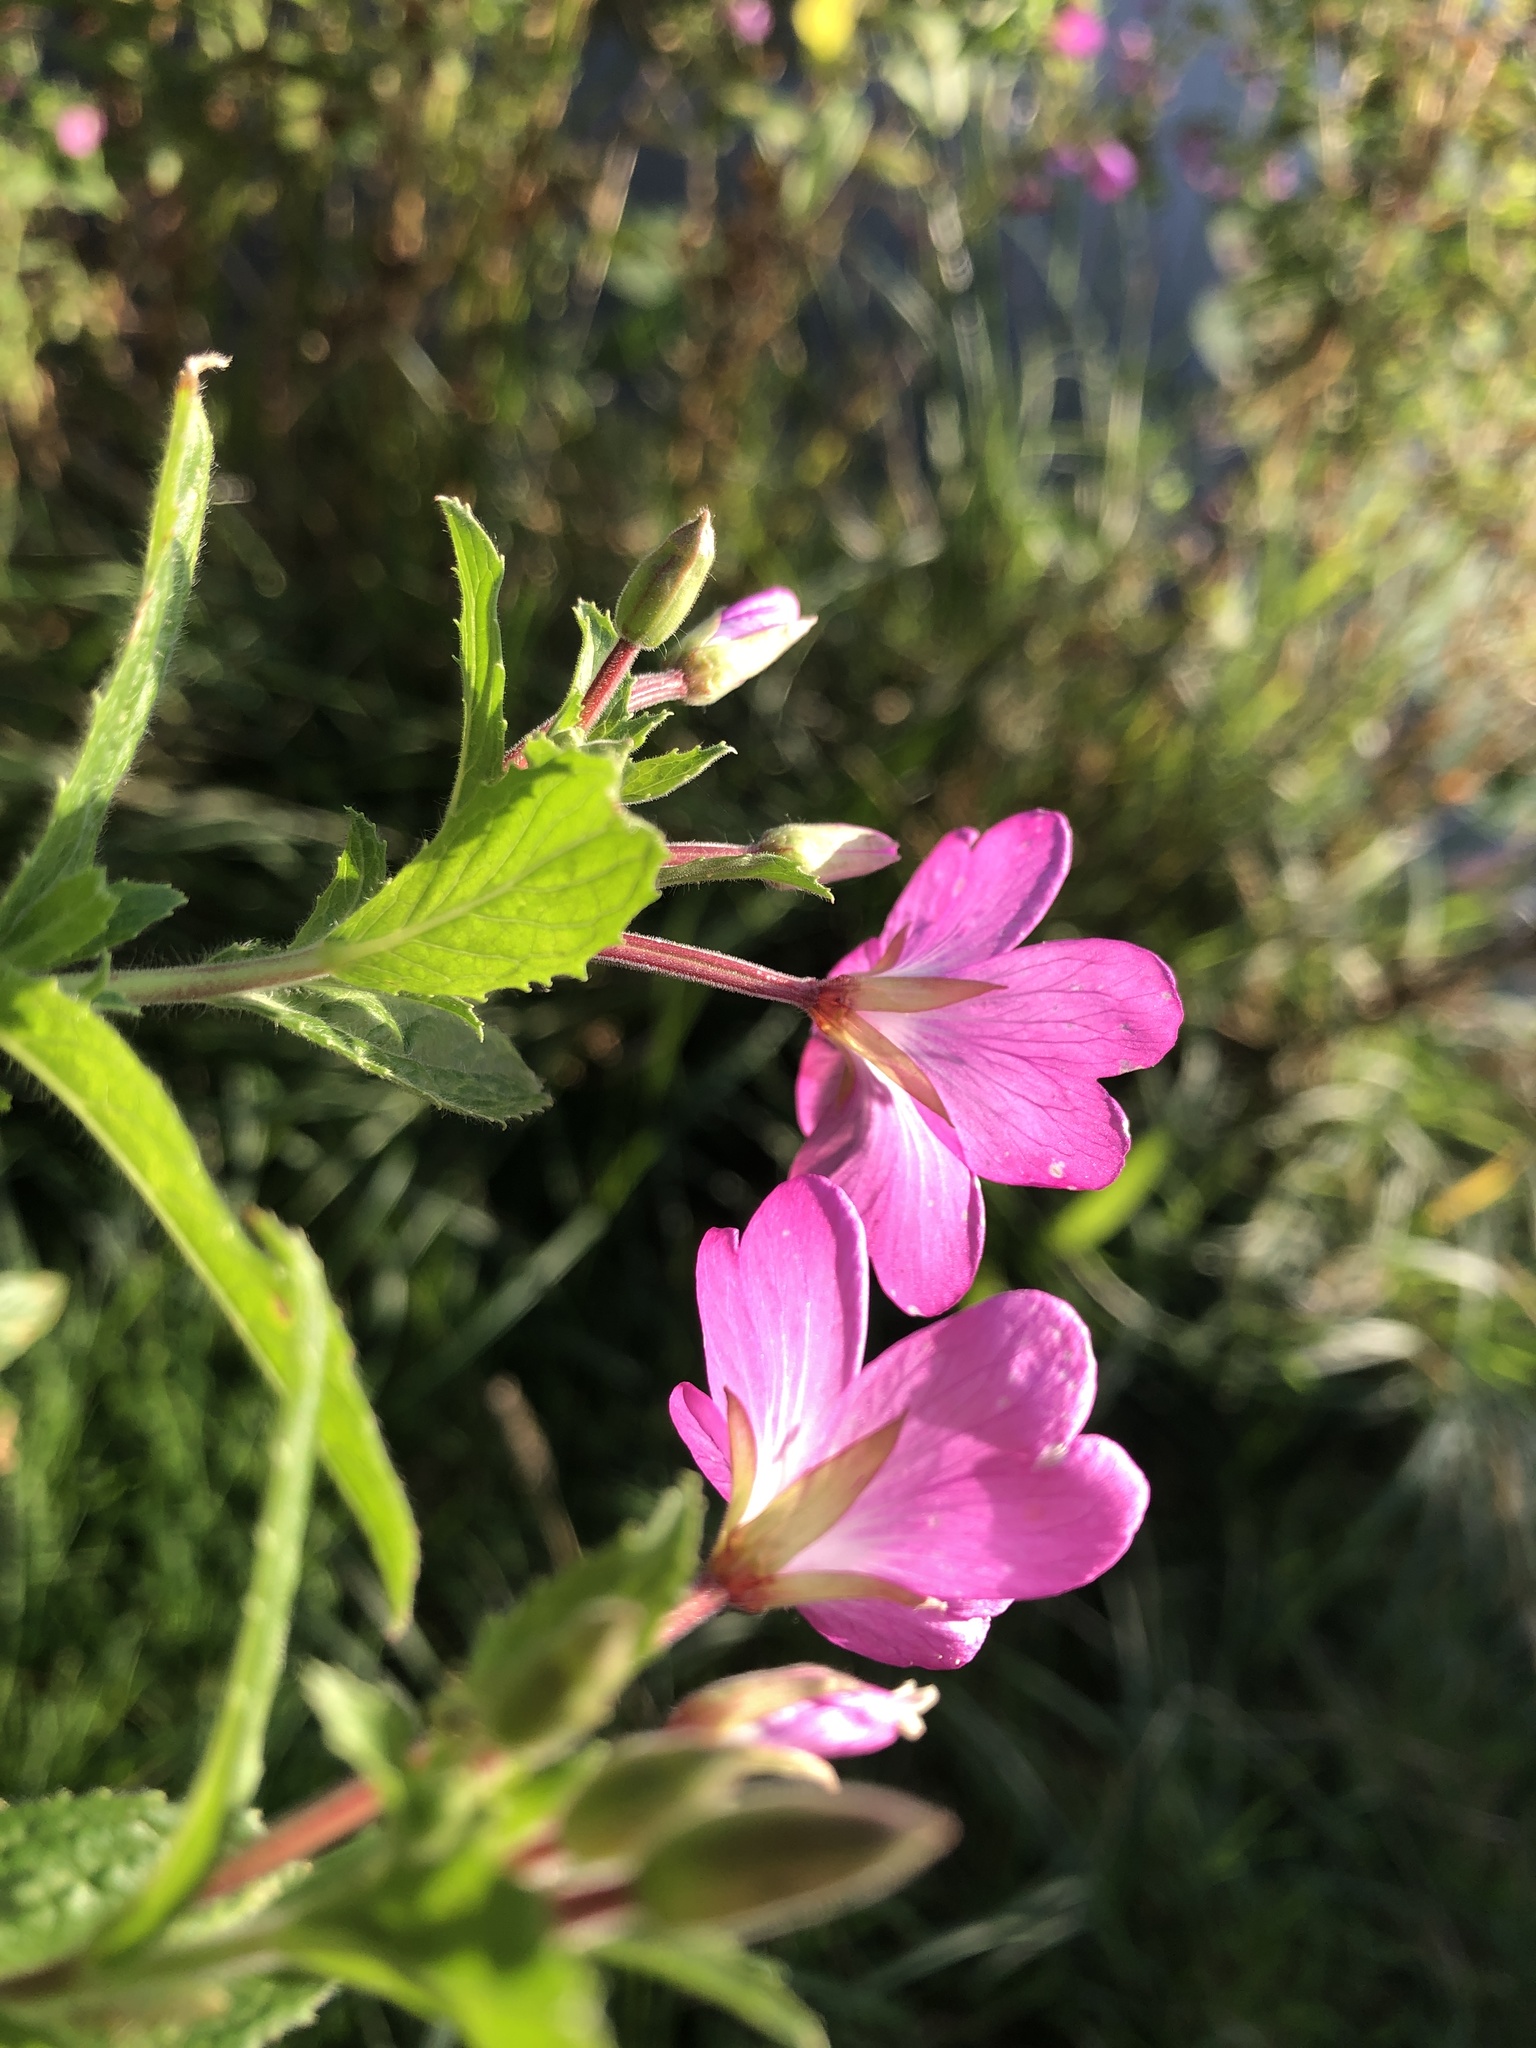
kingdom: Plantae
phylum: Tracheophyta
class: Magnoliopsida
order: Myrtales
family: Onagraceae
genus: Epilobium
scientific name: Epilobium hirsutum
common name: Great willowherb
